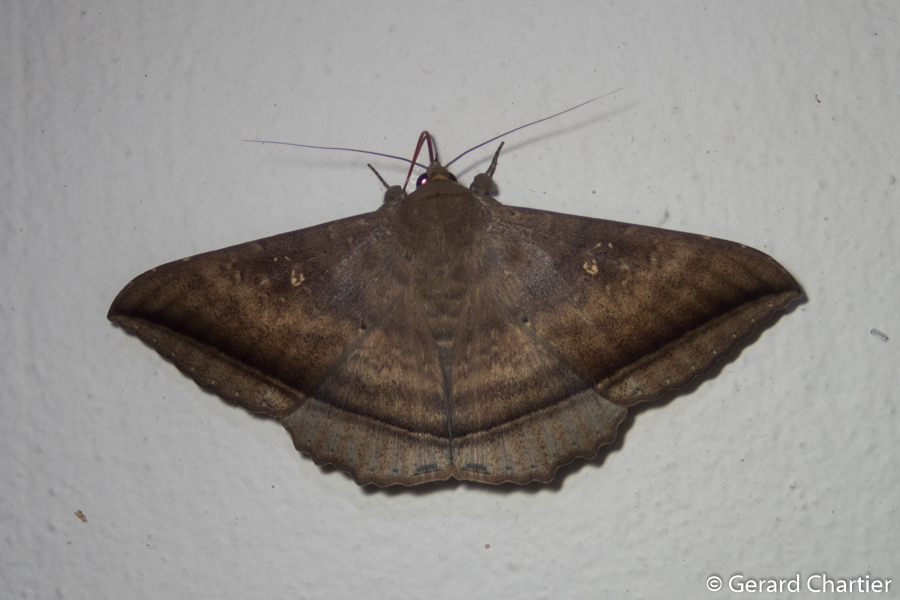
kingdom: Animalia
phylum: Arthropoda
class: Insecta
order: Lepidoptera
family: Erebidae
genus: Hulodes
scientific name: Hulodes caranea
